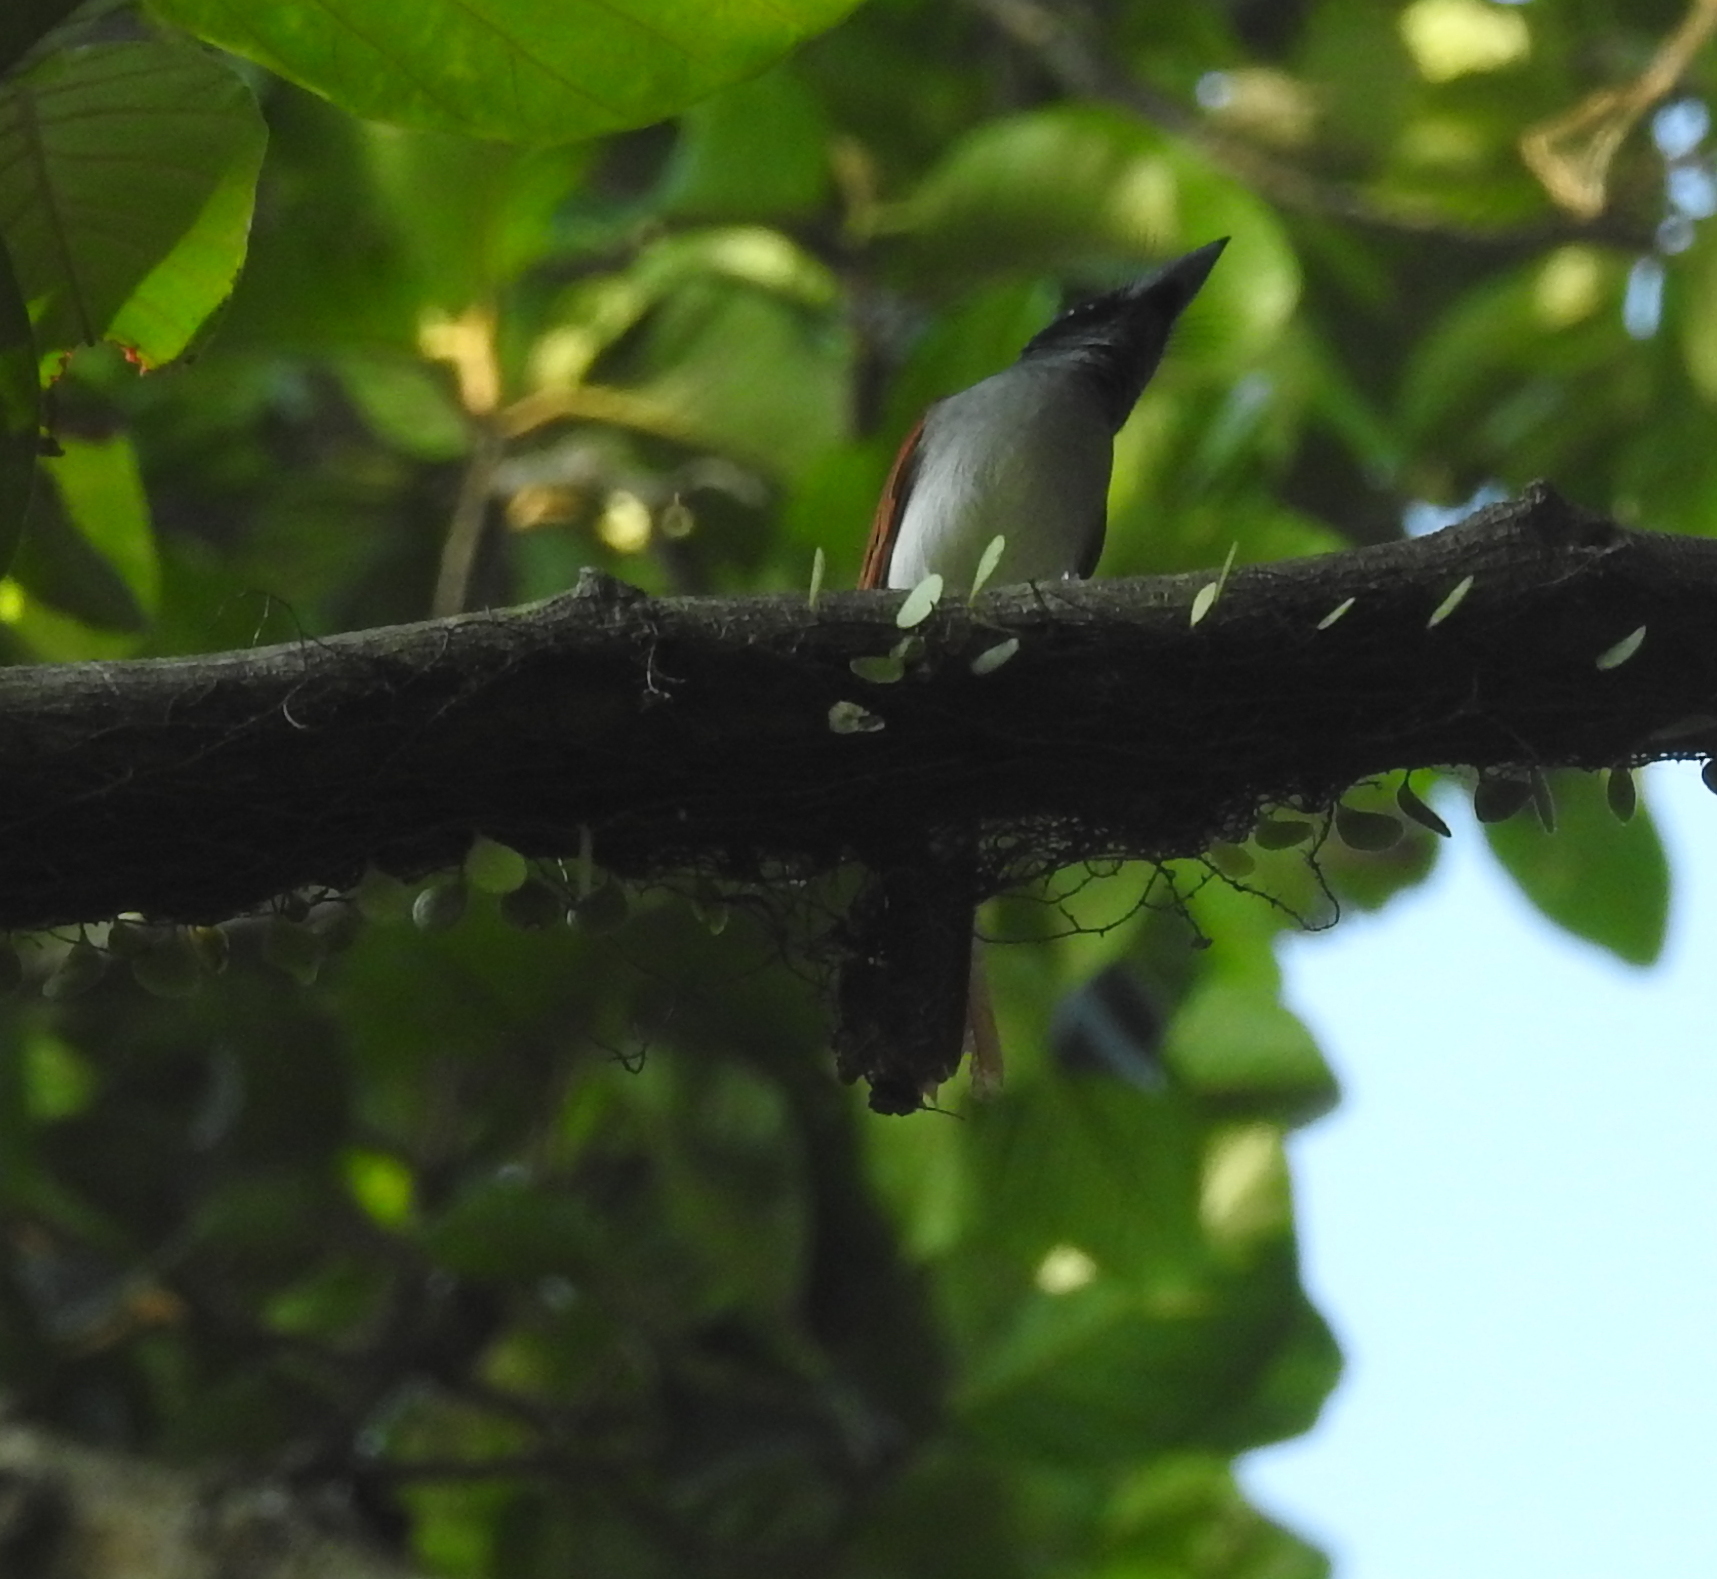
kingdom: Animalia
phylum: Chordata
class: Aves
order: Passeriformes
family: Monarchidae
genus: Terpsiphone
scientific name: Terpsiphone paradisi
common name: Indian paradise flycatcher
